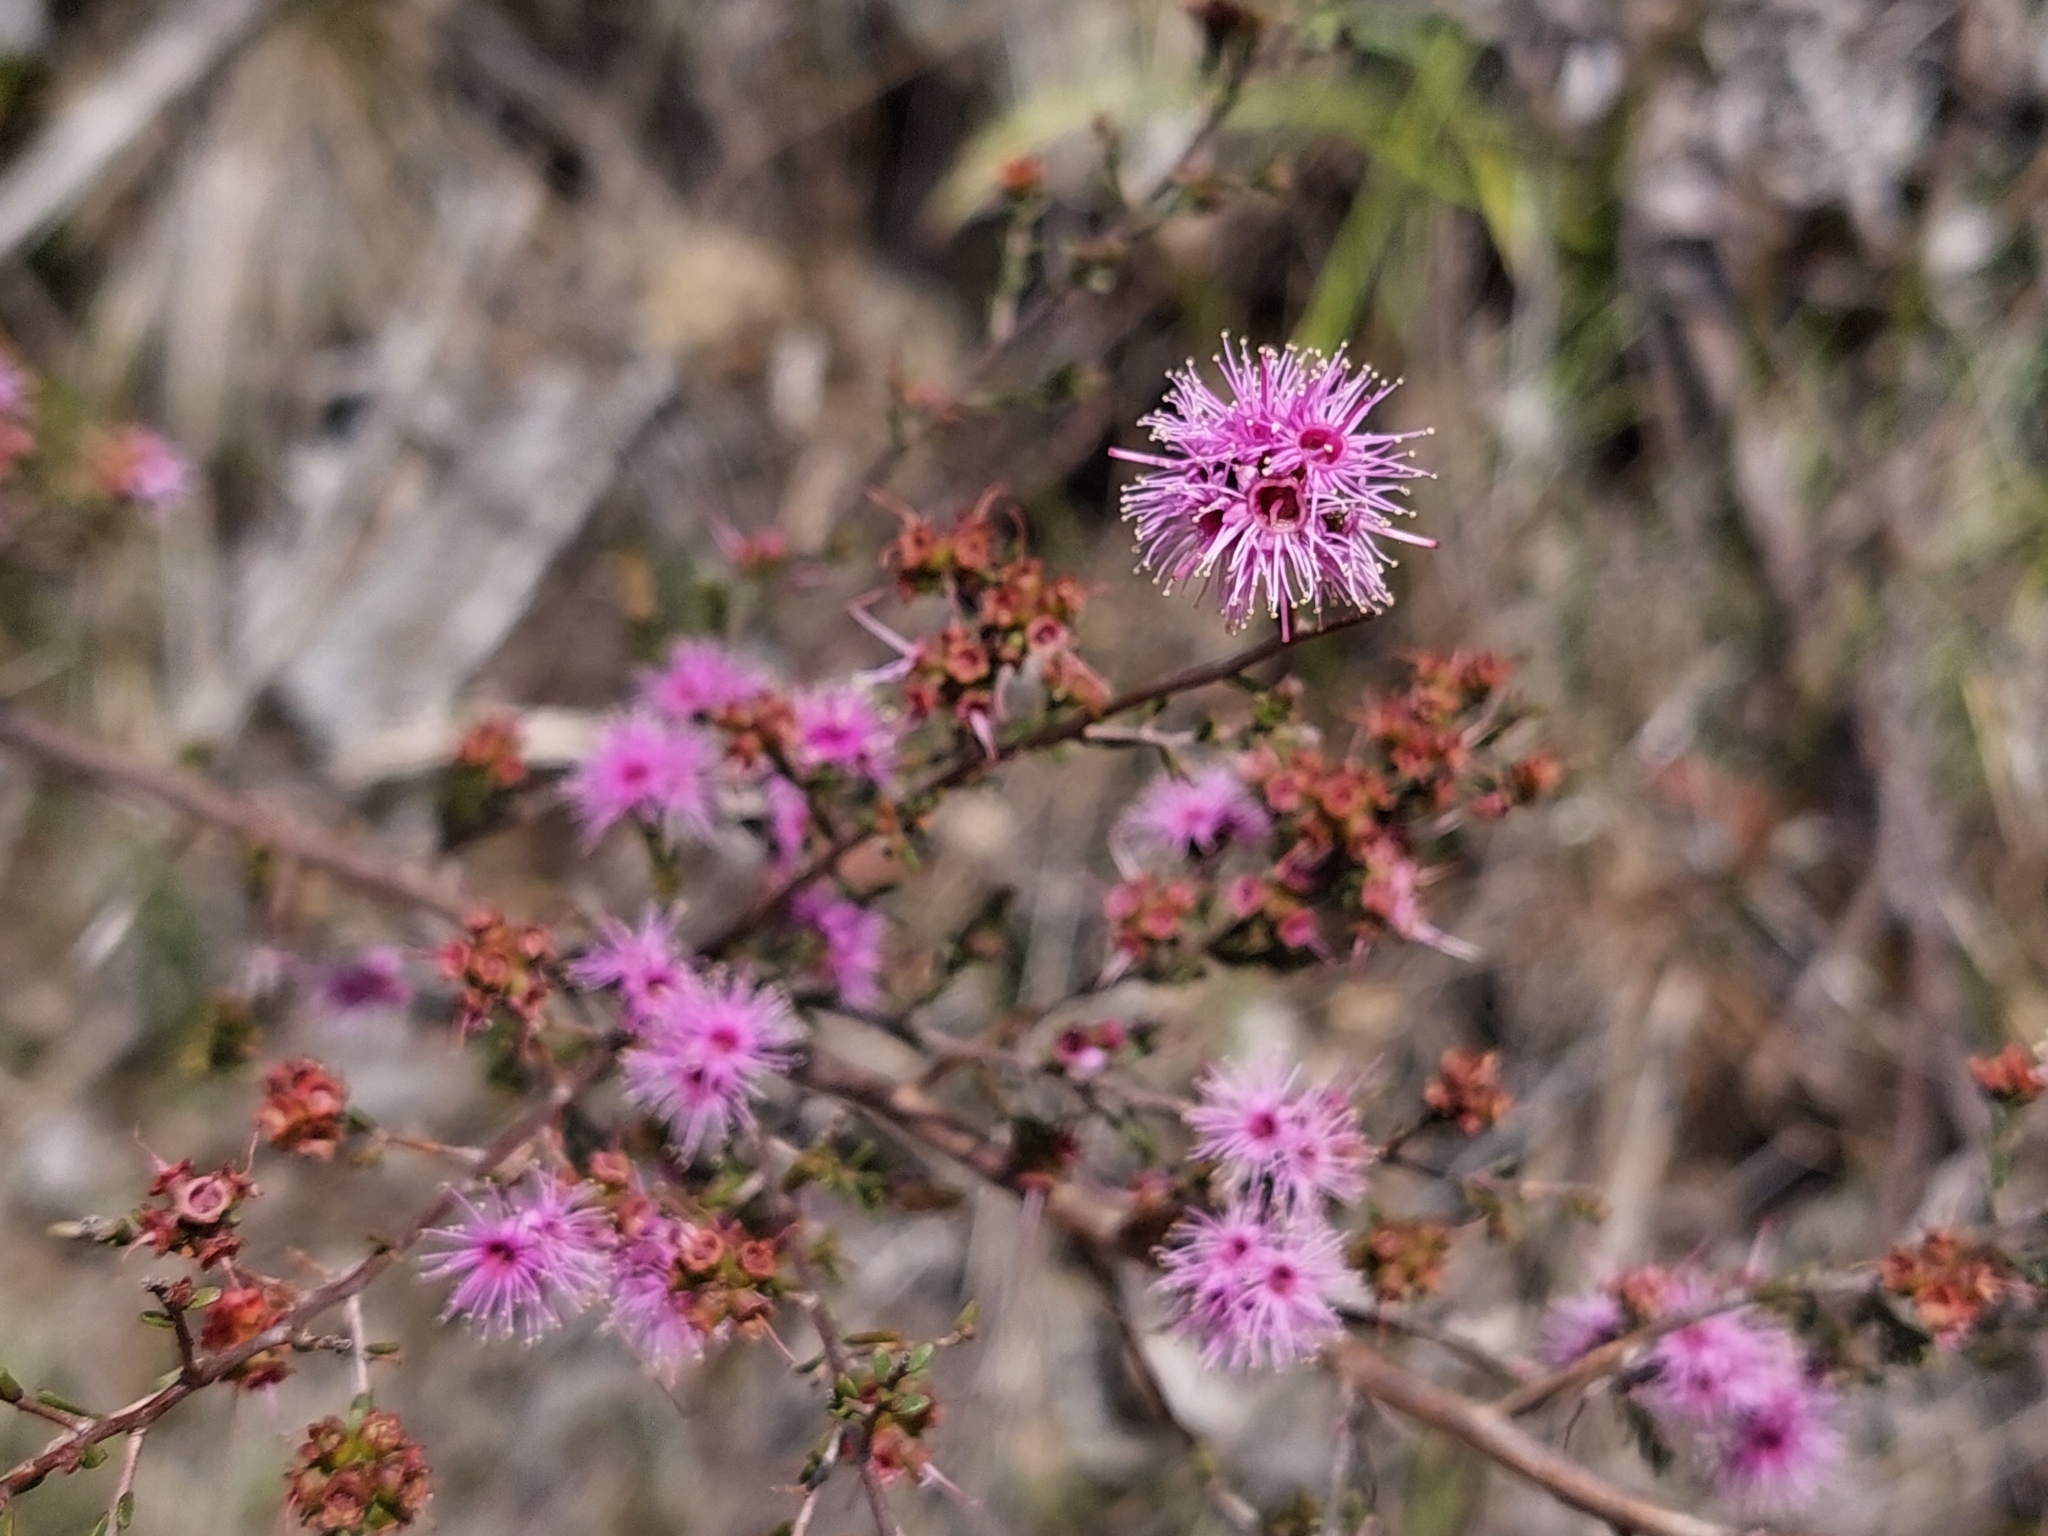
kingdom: Plantae
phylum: Tracheophyta
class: Magnoliopsida
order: Myrtales
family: Myrtaceae
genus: Kunzea
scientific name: Kunzea parvifolia
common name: Violet kunzea
